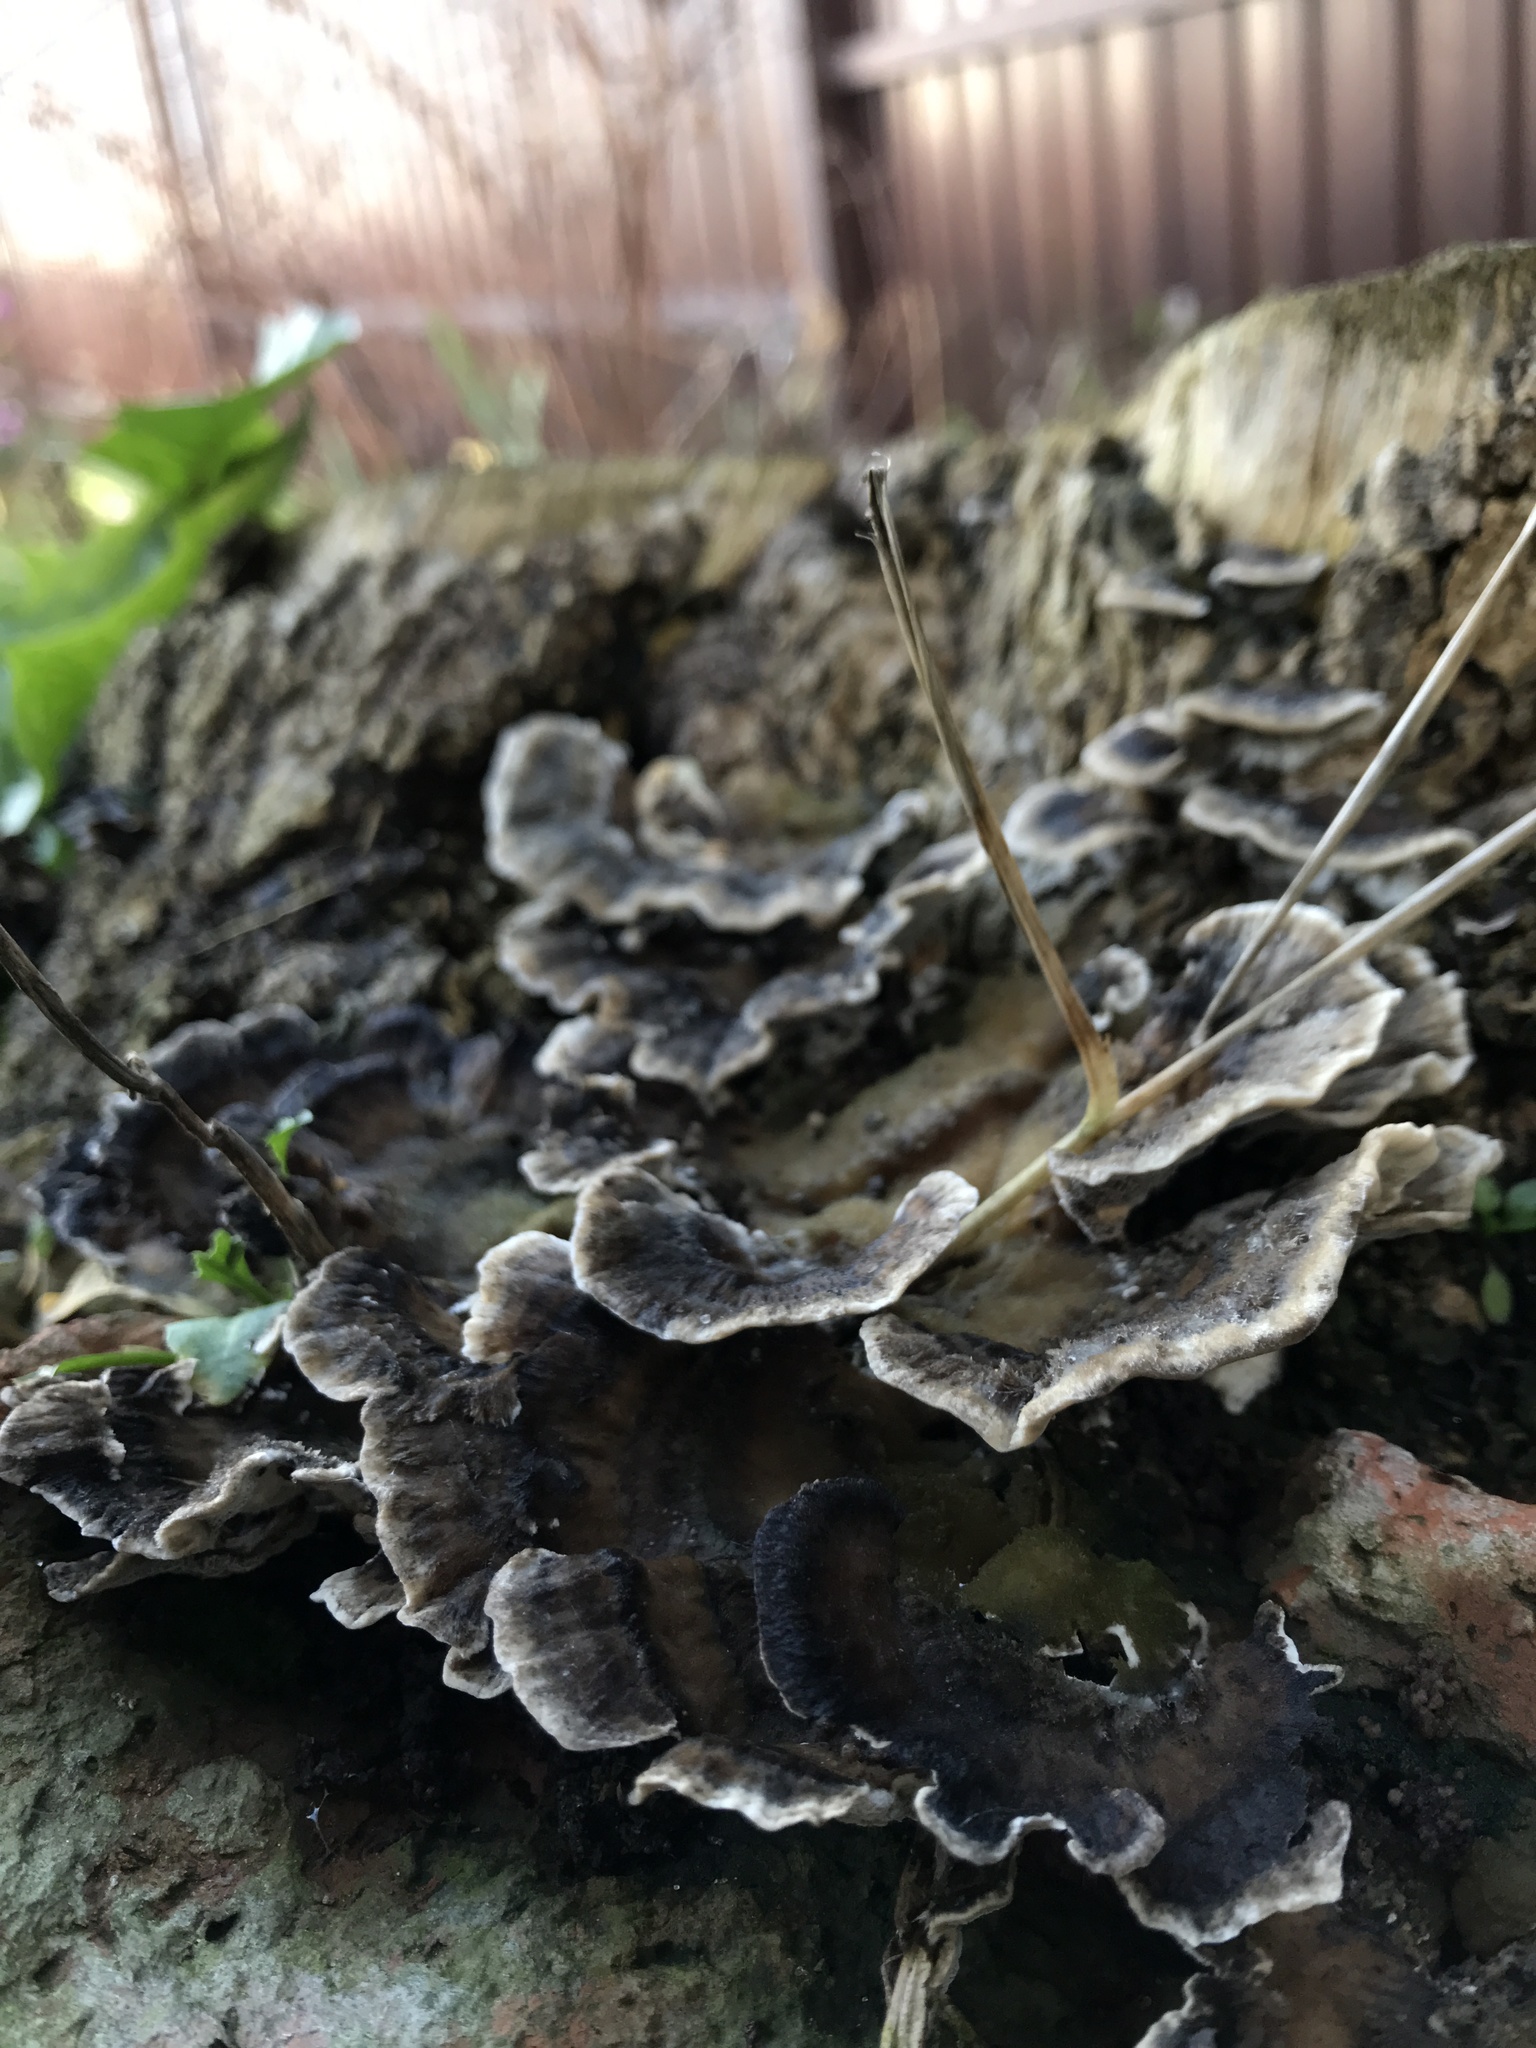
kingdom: Fungi
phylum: Basidiomycota
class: Agaricomycetes
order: Polyporales
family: Phanerochaetaceae
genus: Bjerkandera
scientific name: Bjerkandera adusta
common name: Smoky bracket
